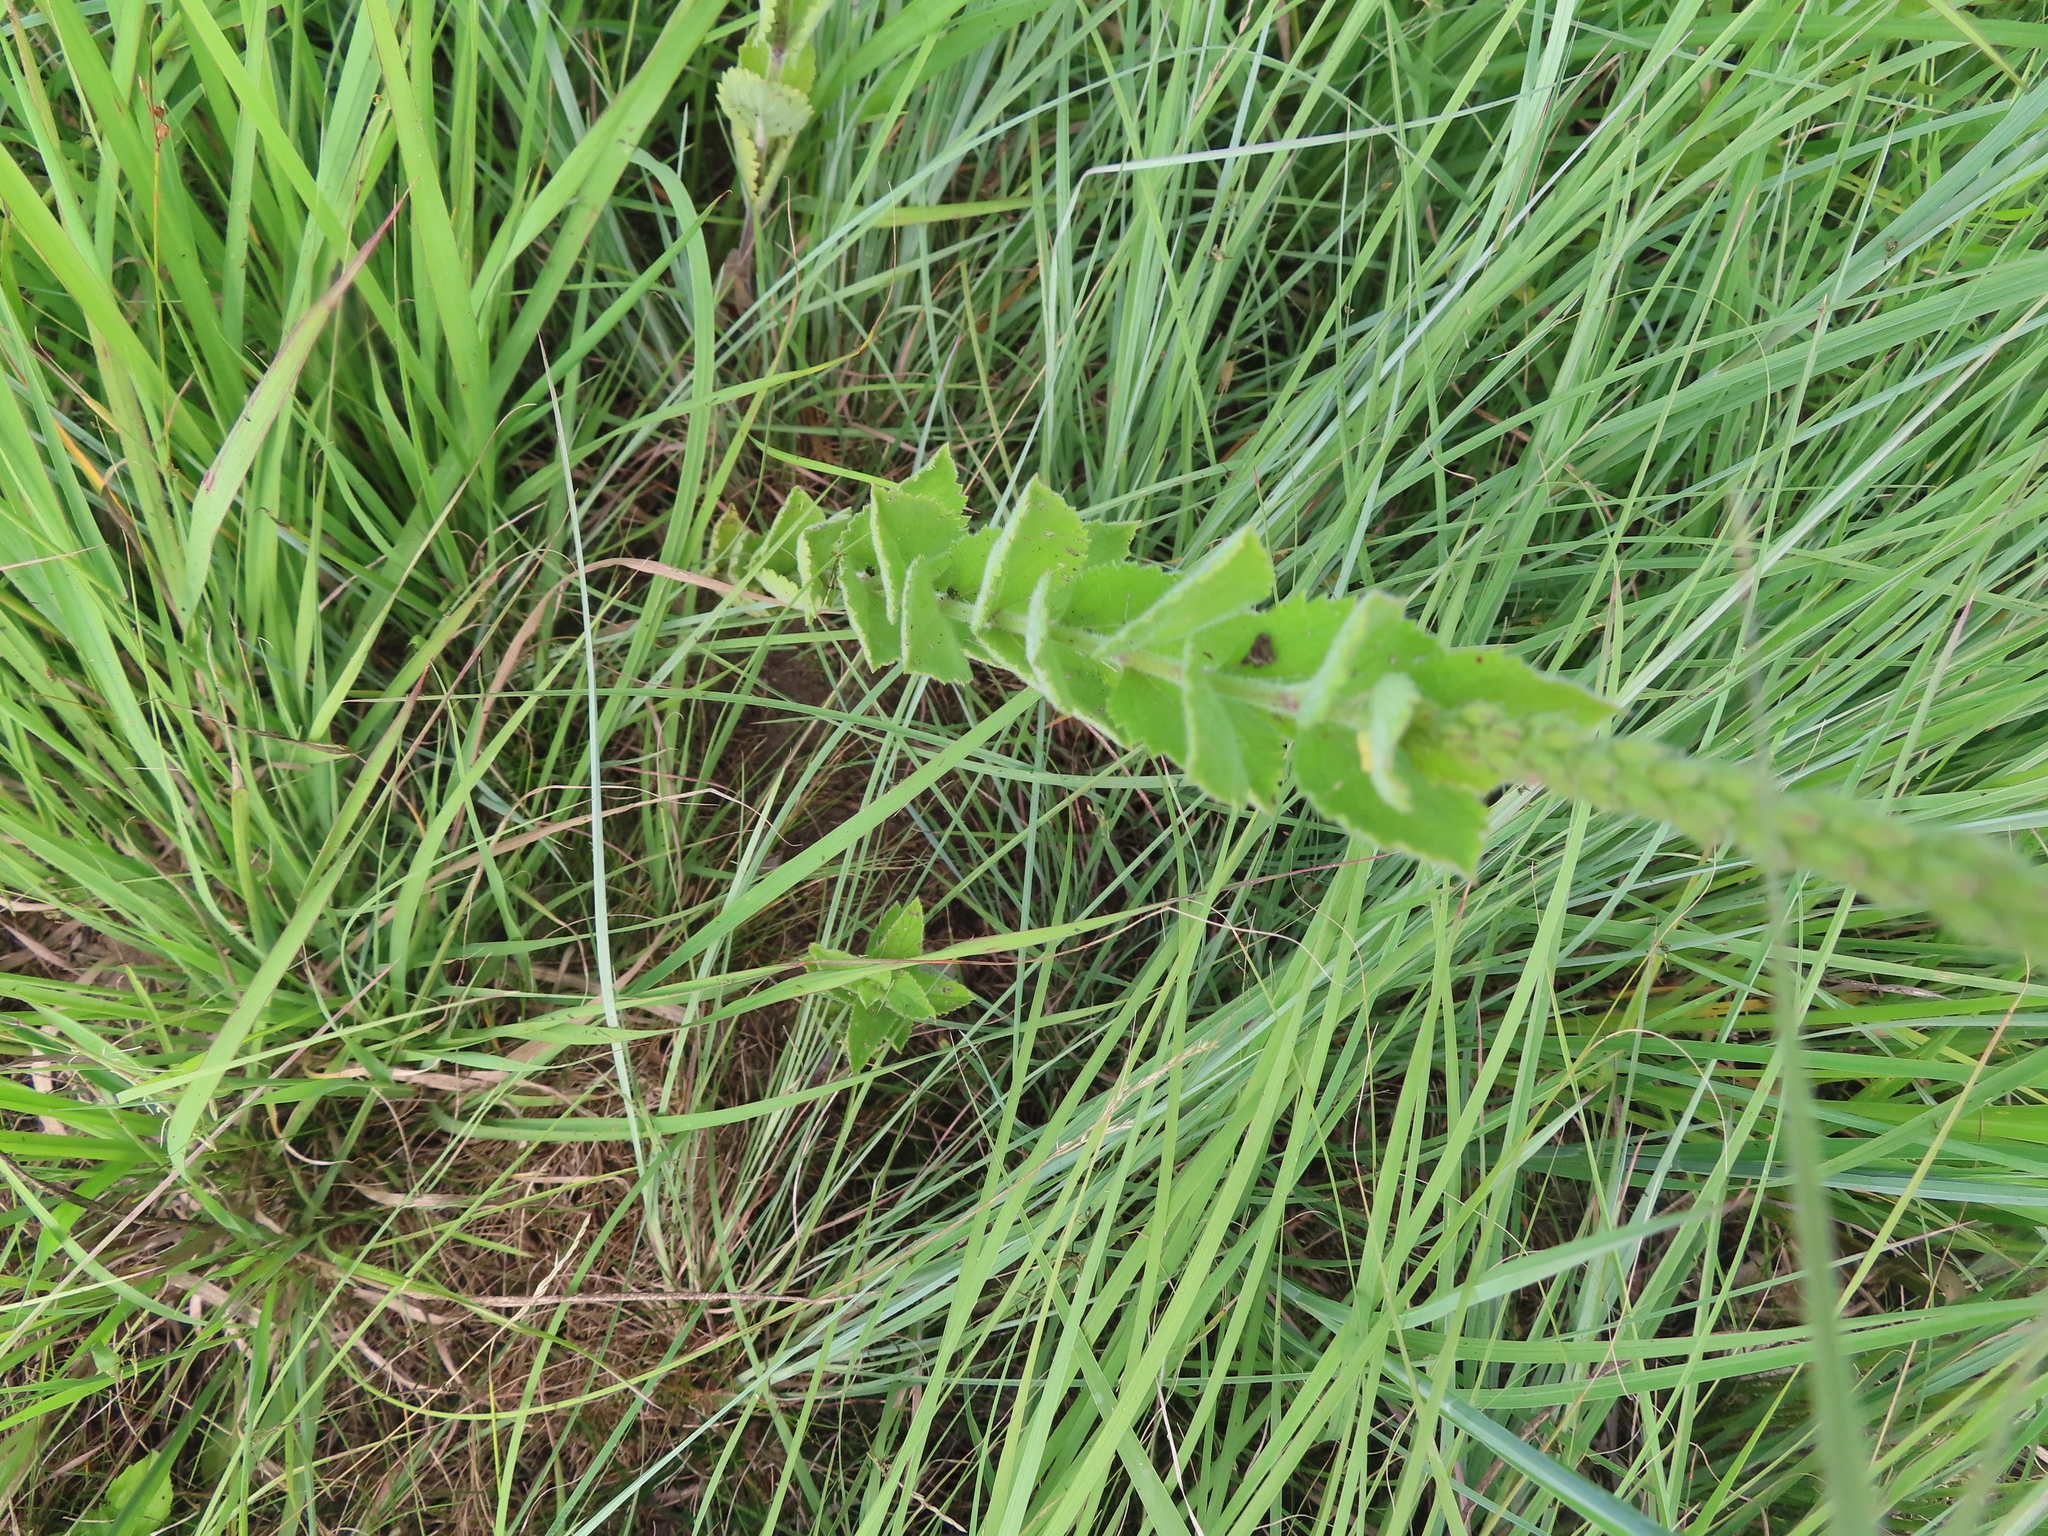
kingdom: Plantae
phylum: Tracheophyta
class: Magnoliopsida
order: Lamiales
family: Verbenaceae
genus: Verbena
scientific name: Verbena stricta
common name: Hoary vervain
